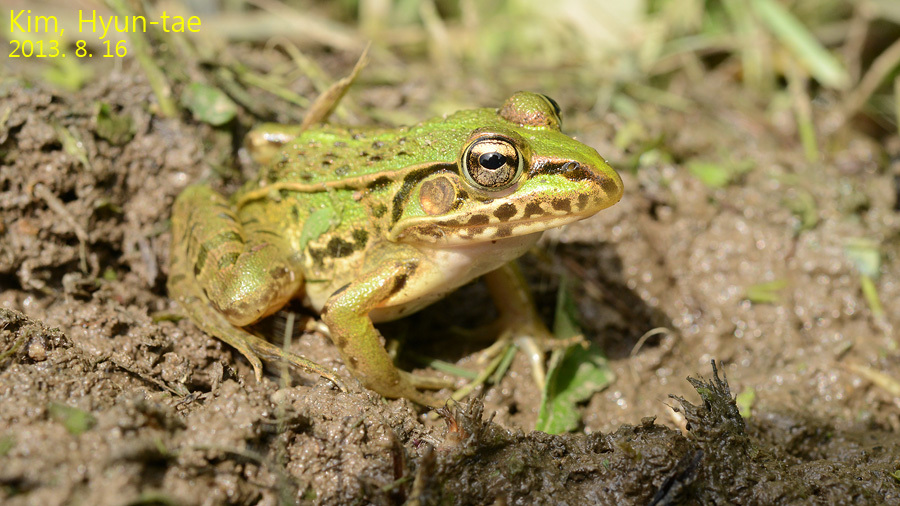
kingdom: Animalia
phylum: Chordata
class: Amphibia
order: Anura
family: Ranidae
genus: Pelophylax
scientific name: Pelophylax nigromaculatus
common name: Black-spotted pond frog
